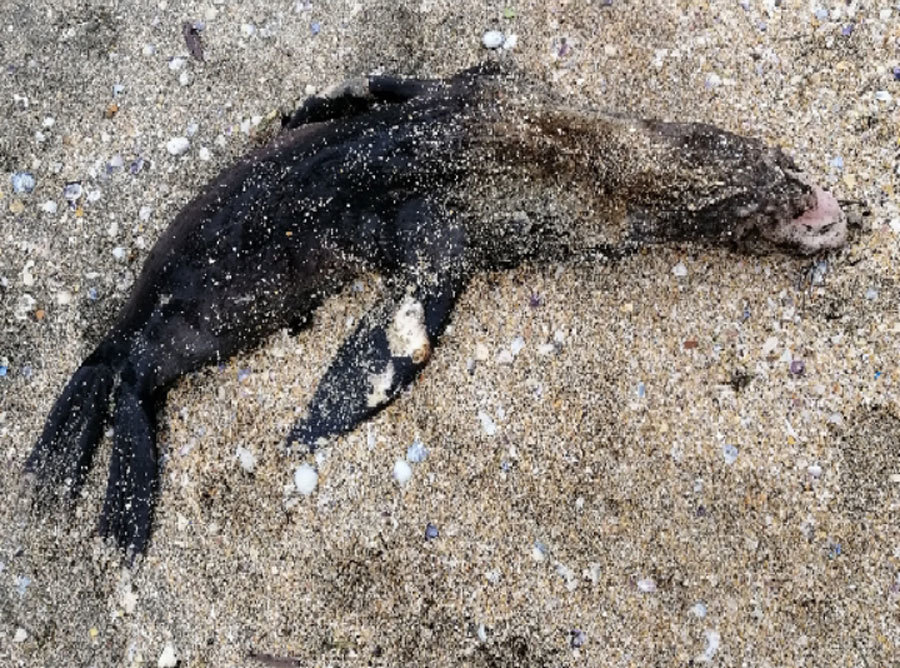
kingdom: Animalia
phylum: Chordata
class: Mammalia
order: Carnivora
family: Otariidae
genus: Arctocephalus
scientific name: Arctocephalus forsteri
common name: New zealand fur seal
